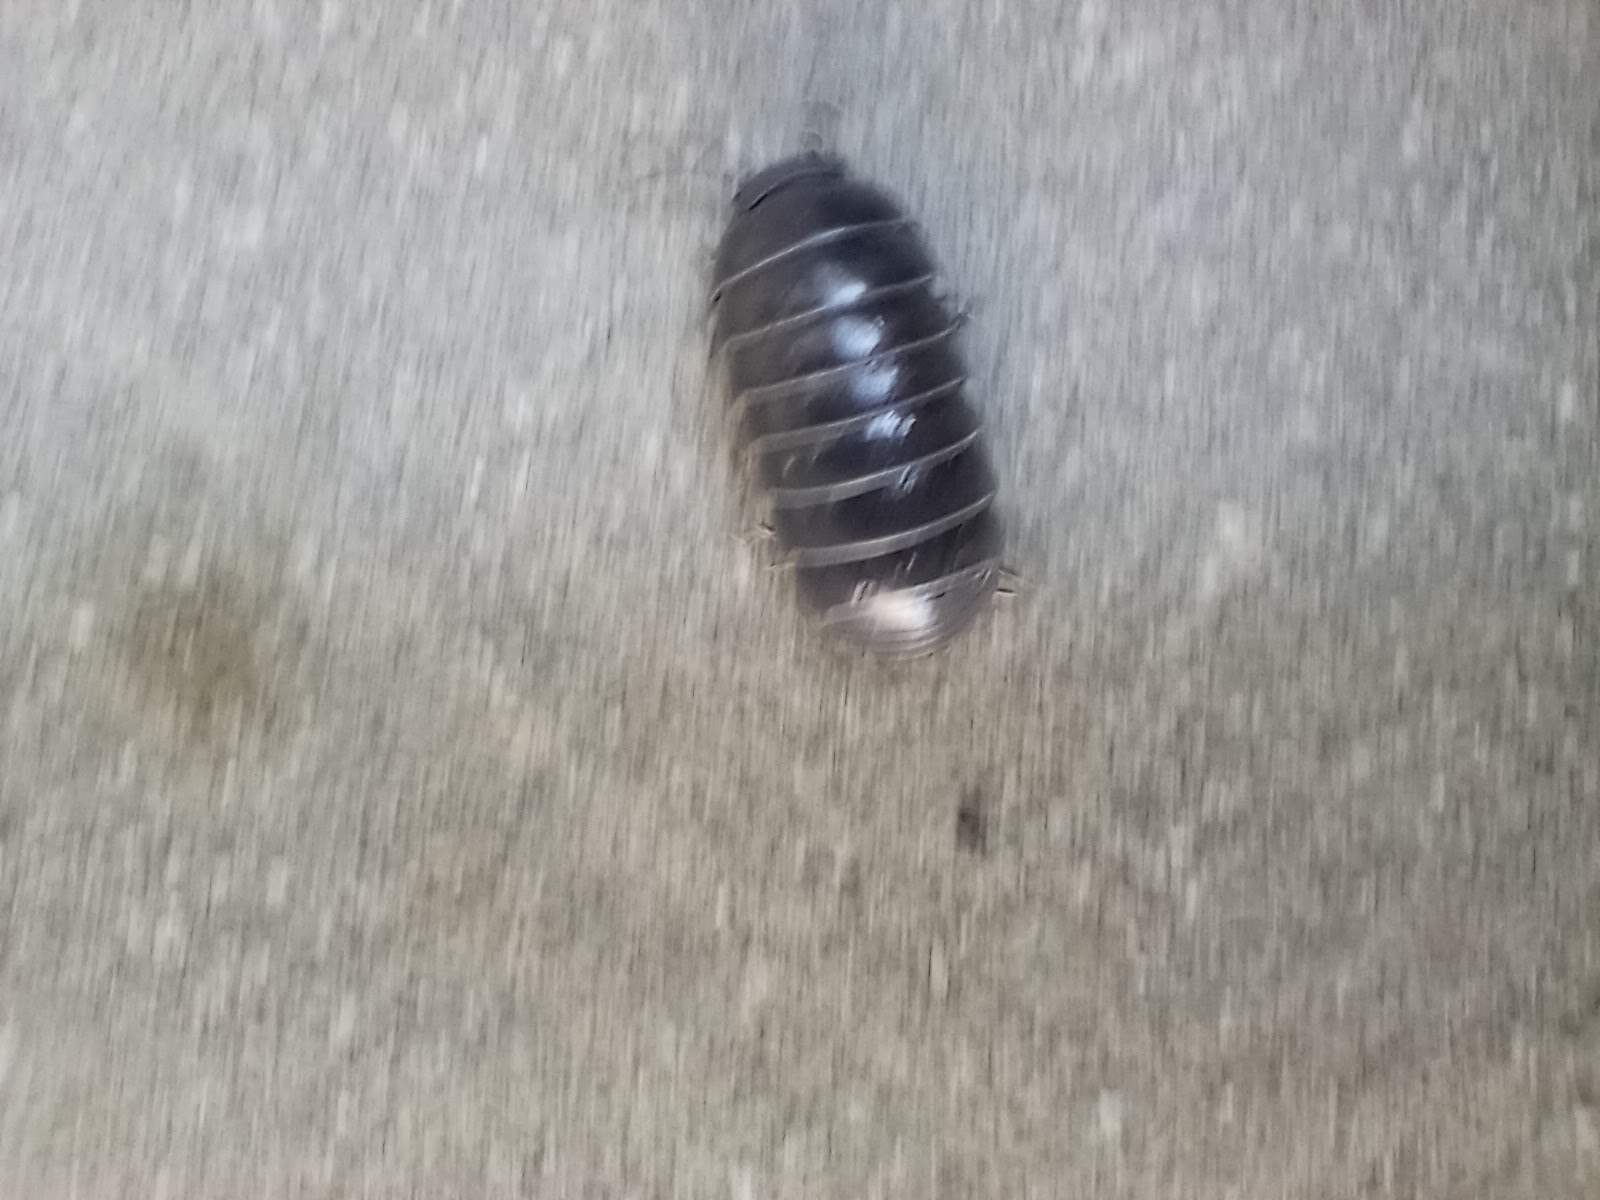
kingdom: Animalia
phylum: Arthropoda
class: Malacostraca
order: Isopoda
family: Armadillidiidae
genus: Armadillidium
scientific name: Armadillidium vulgare
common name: Common pill woodlouse
